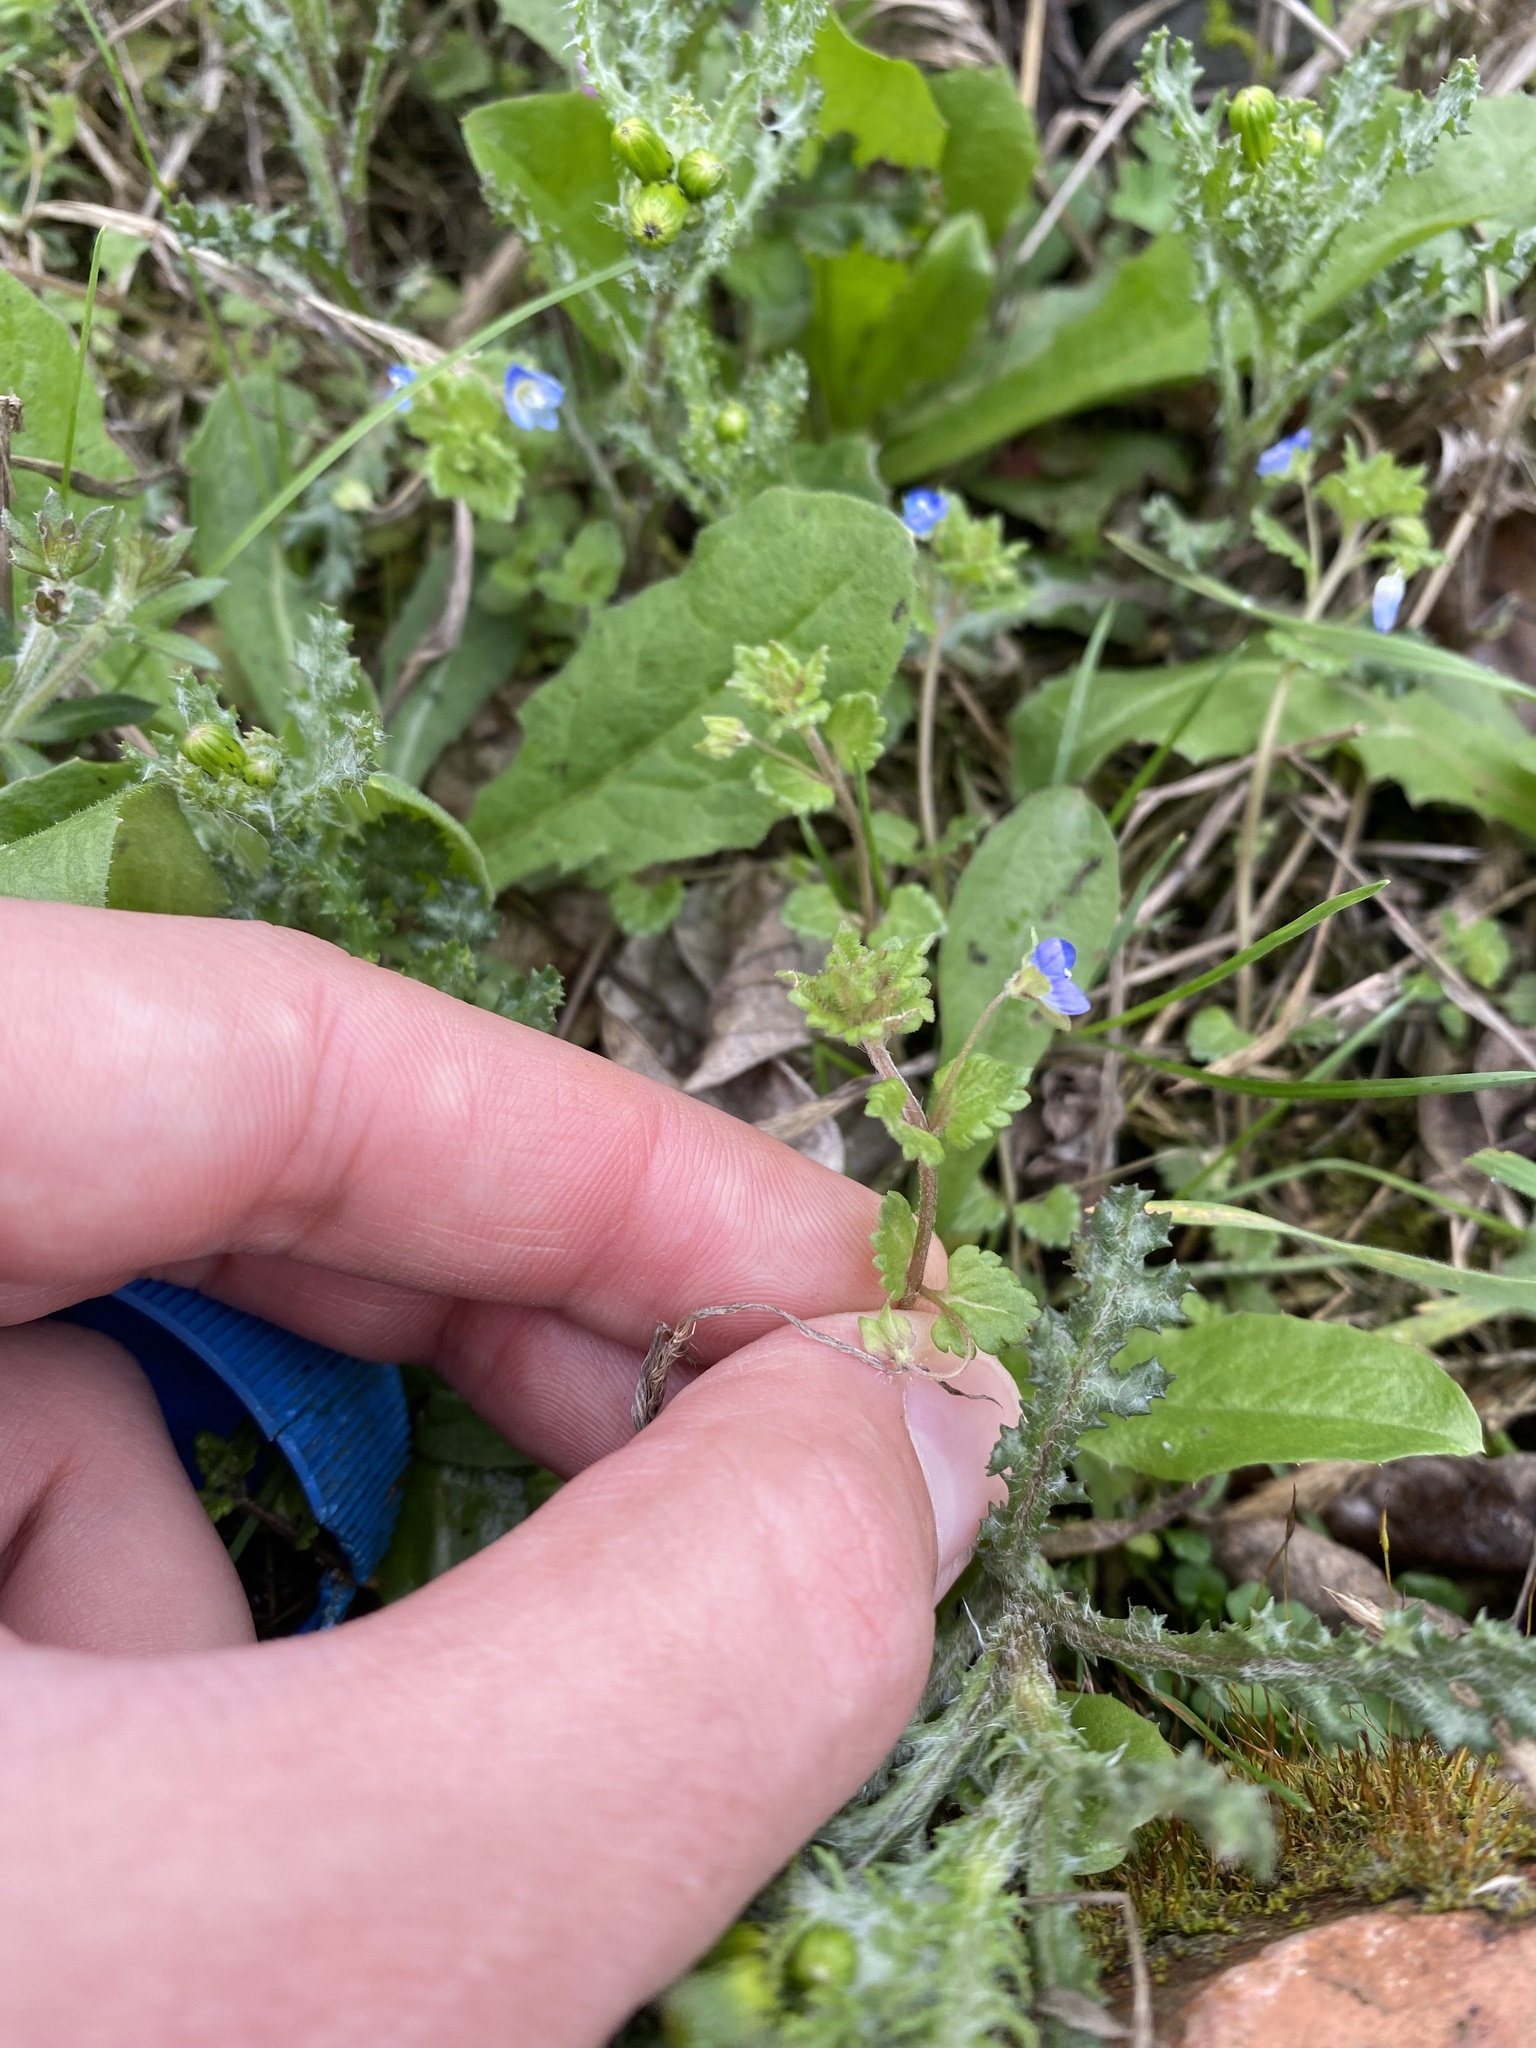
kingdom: Plantae
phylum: Tracheophyta
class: Magnoliopsida
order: Lamiales
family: Plantaginaceae
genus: Veronica
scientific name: Veronica polita
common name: Grey field-speedwell
